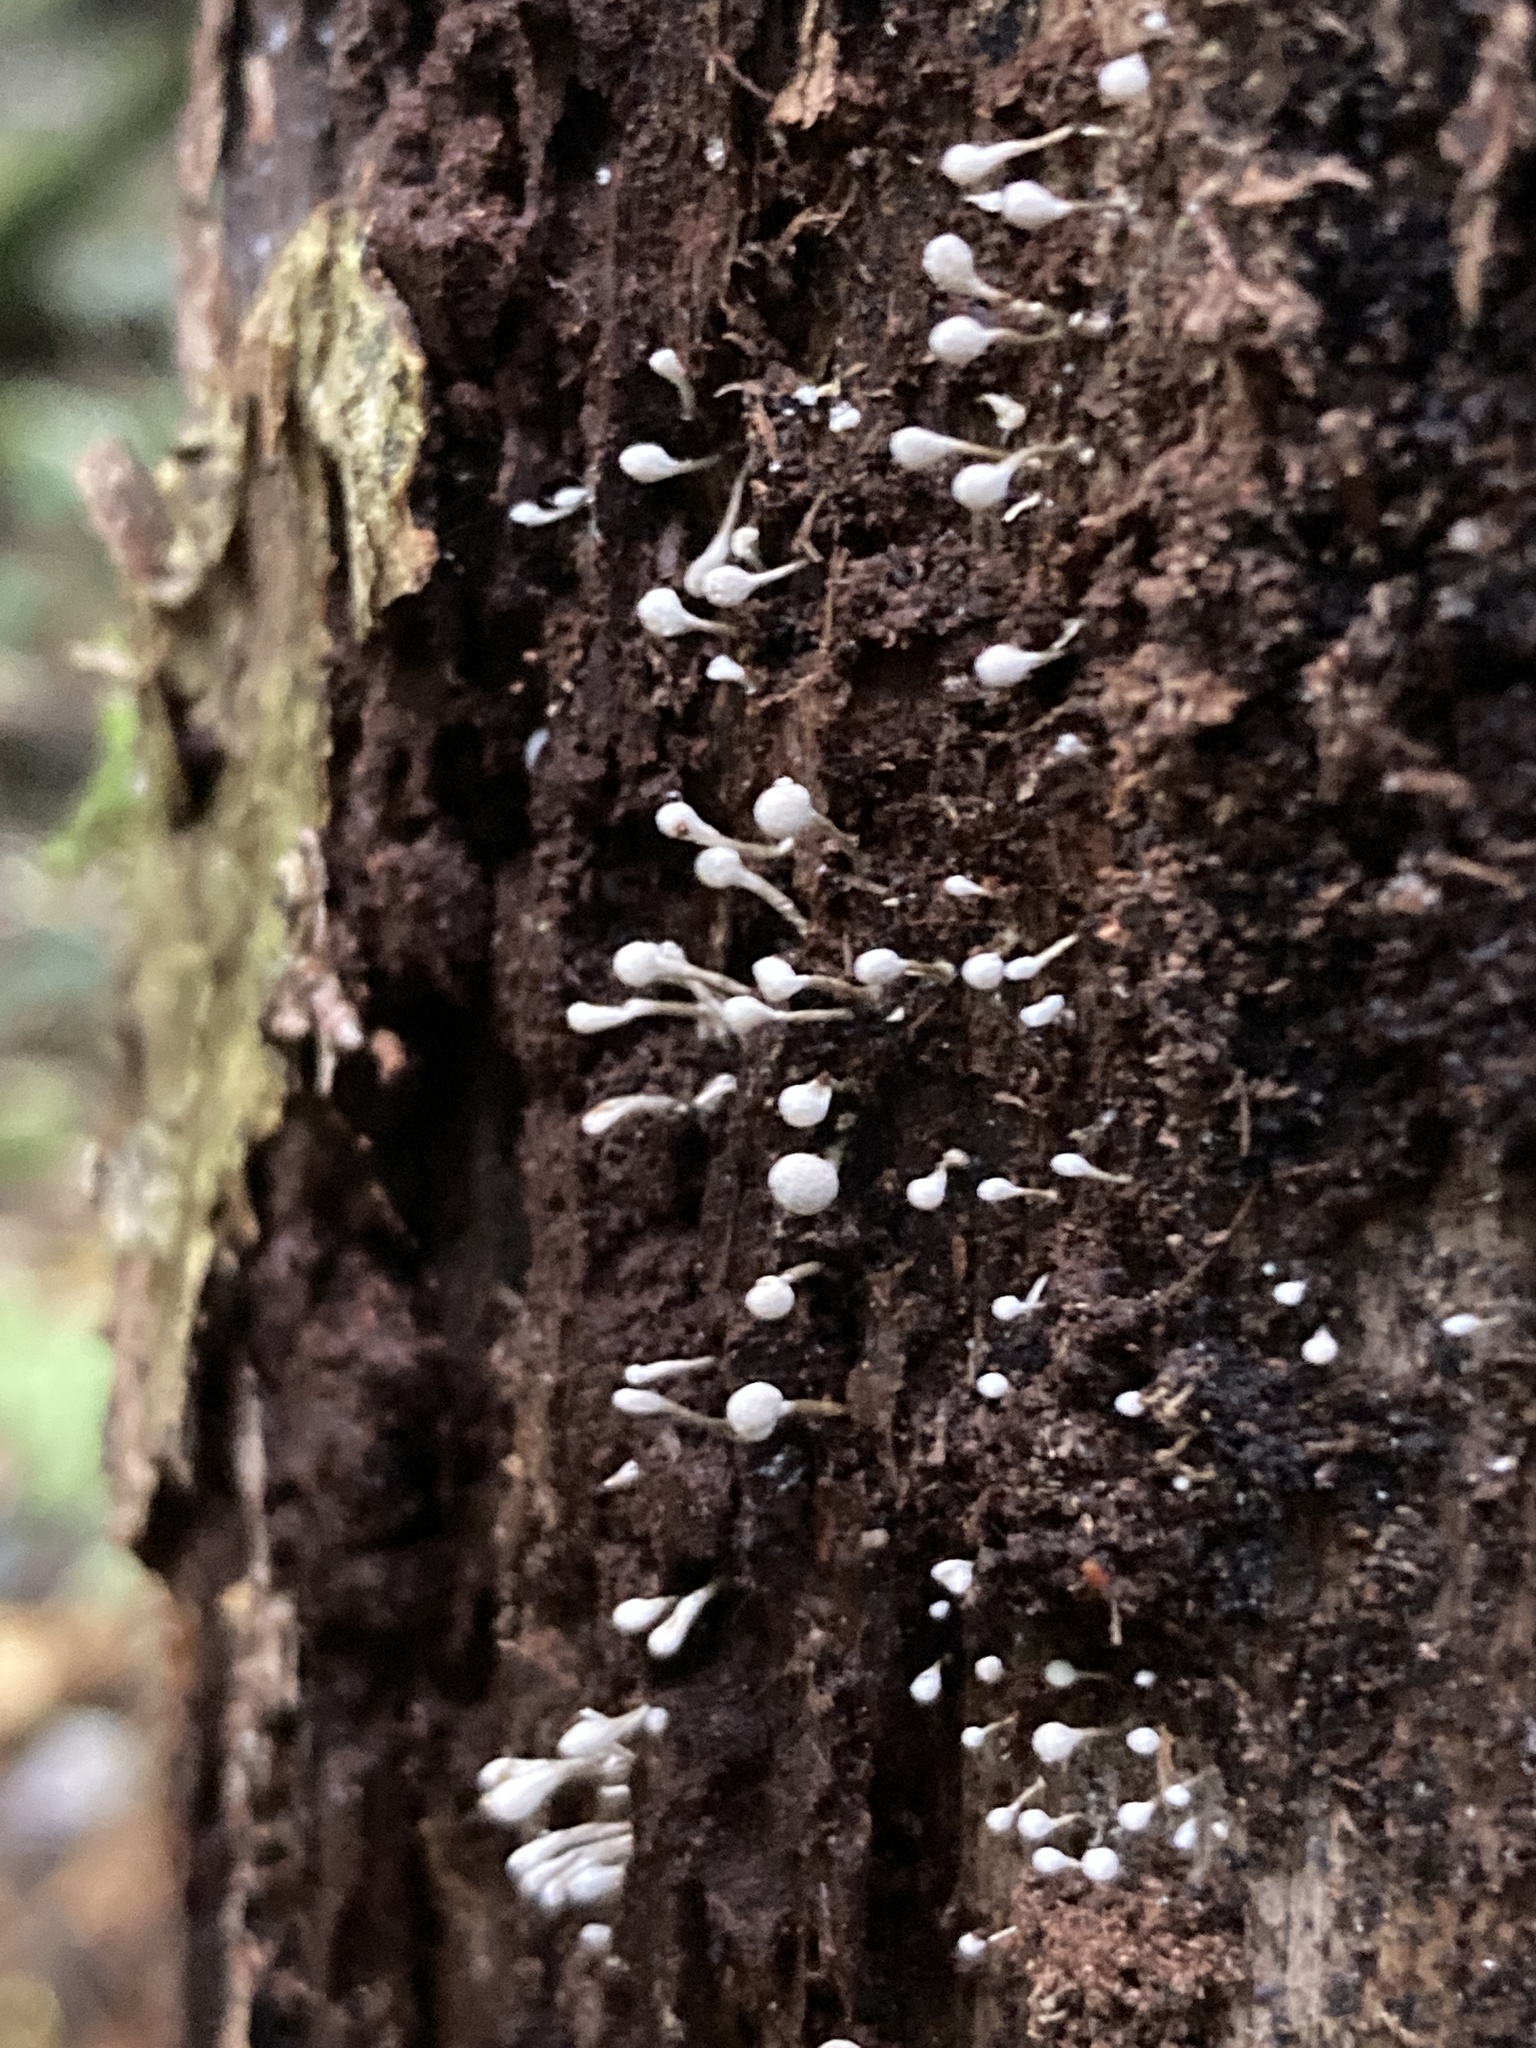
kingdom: Fungi
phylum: Basidiomycota
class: Atractiellomycetes
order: Atractiellales
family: Phleogenaceae
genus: Phleogena
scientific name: Phleogena faginea
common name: Fenugreek stalkball
